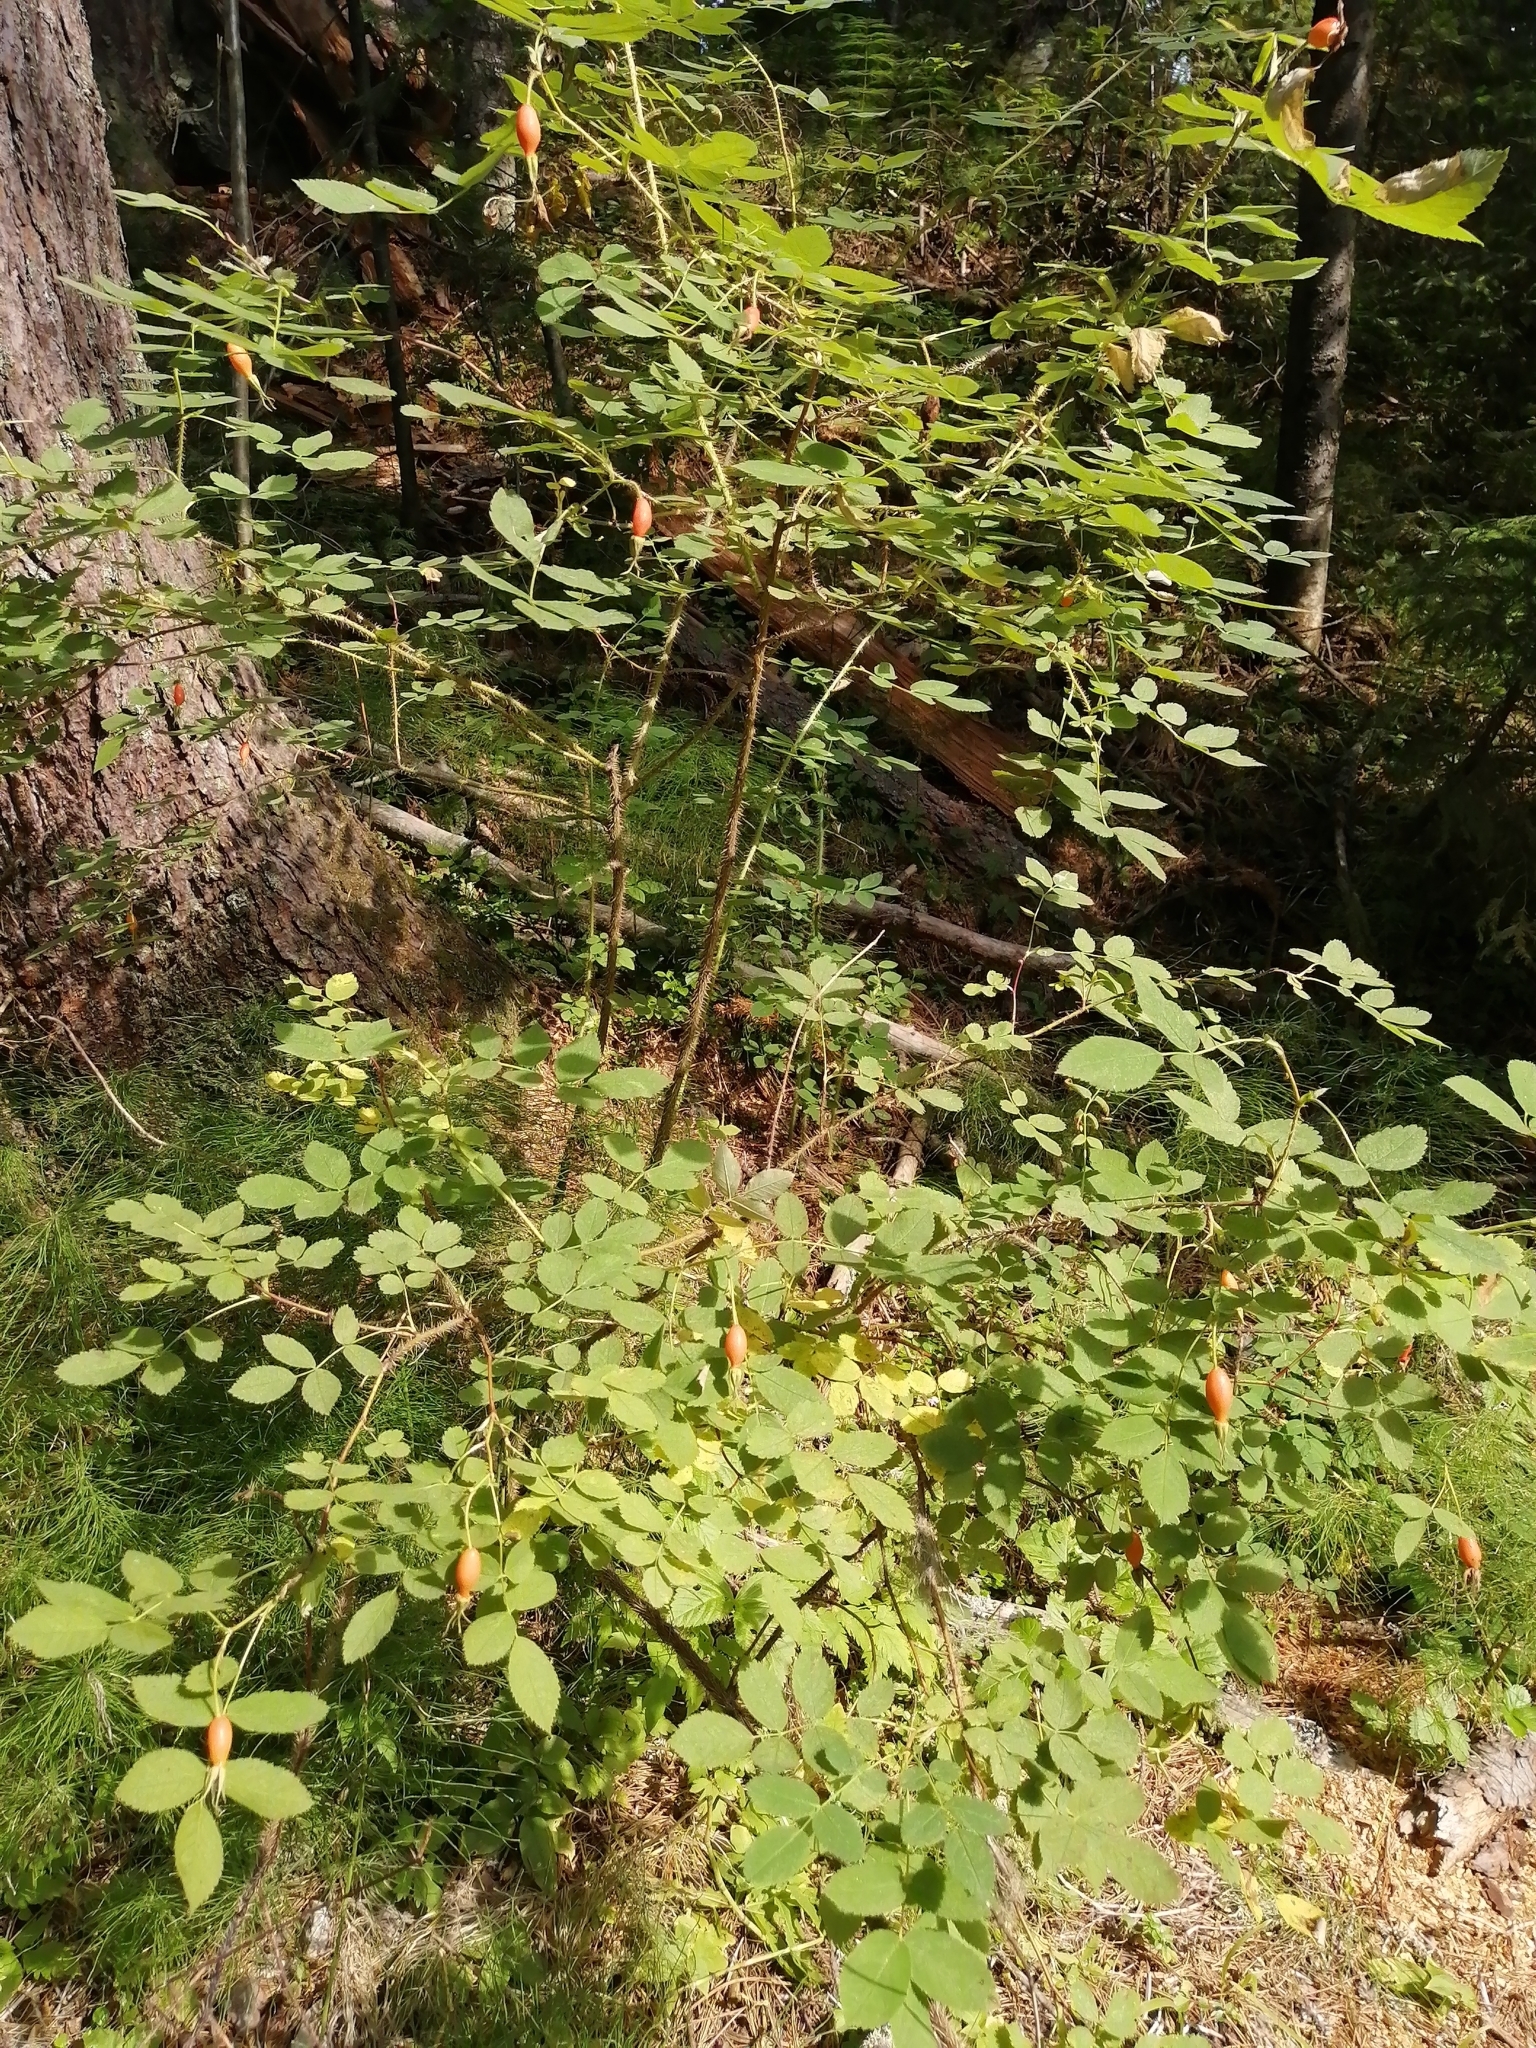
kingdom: Plantae
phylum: Tracheophyta
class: Magnoliopsida
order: Rosales
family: Rosaceae
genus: Rosa
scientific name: Rosa acicularis
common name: Prickly rose
